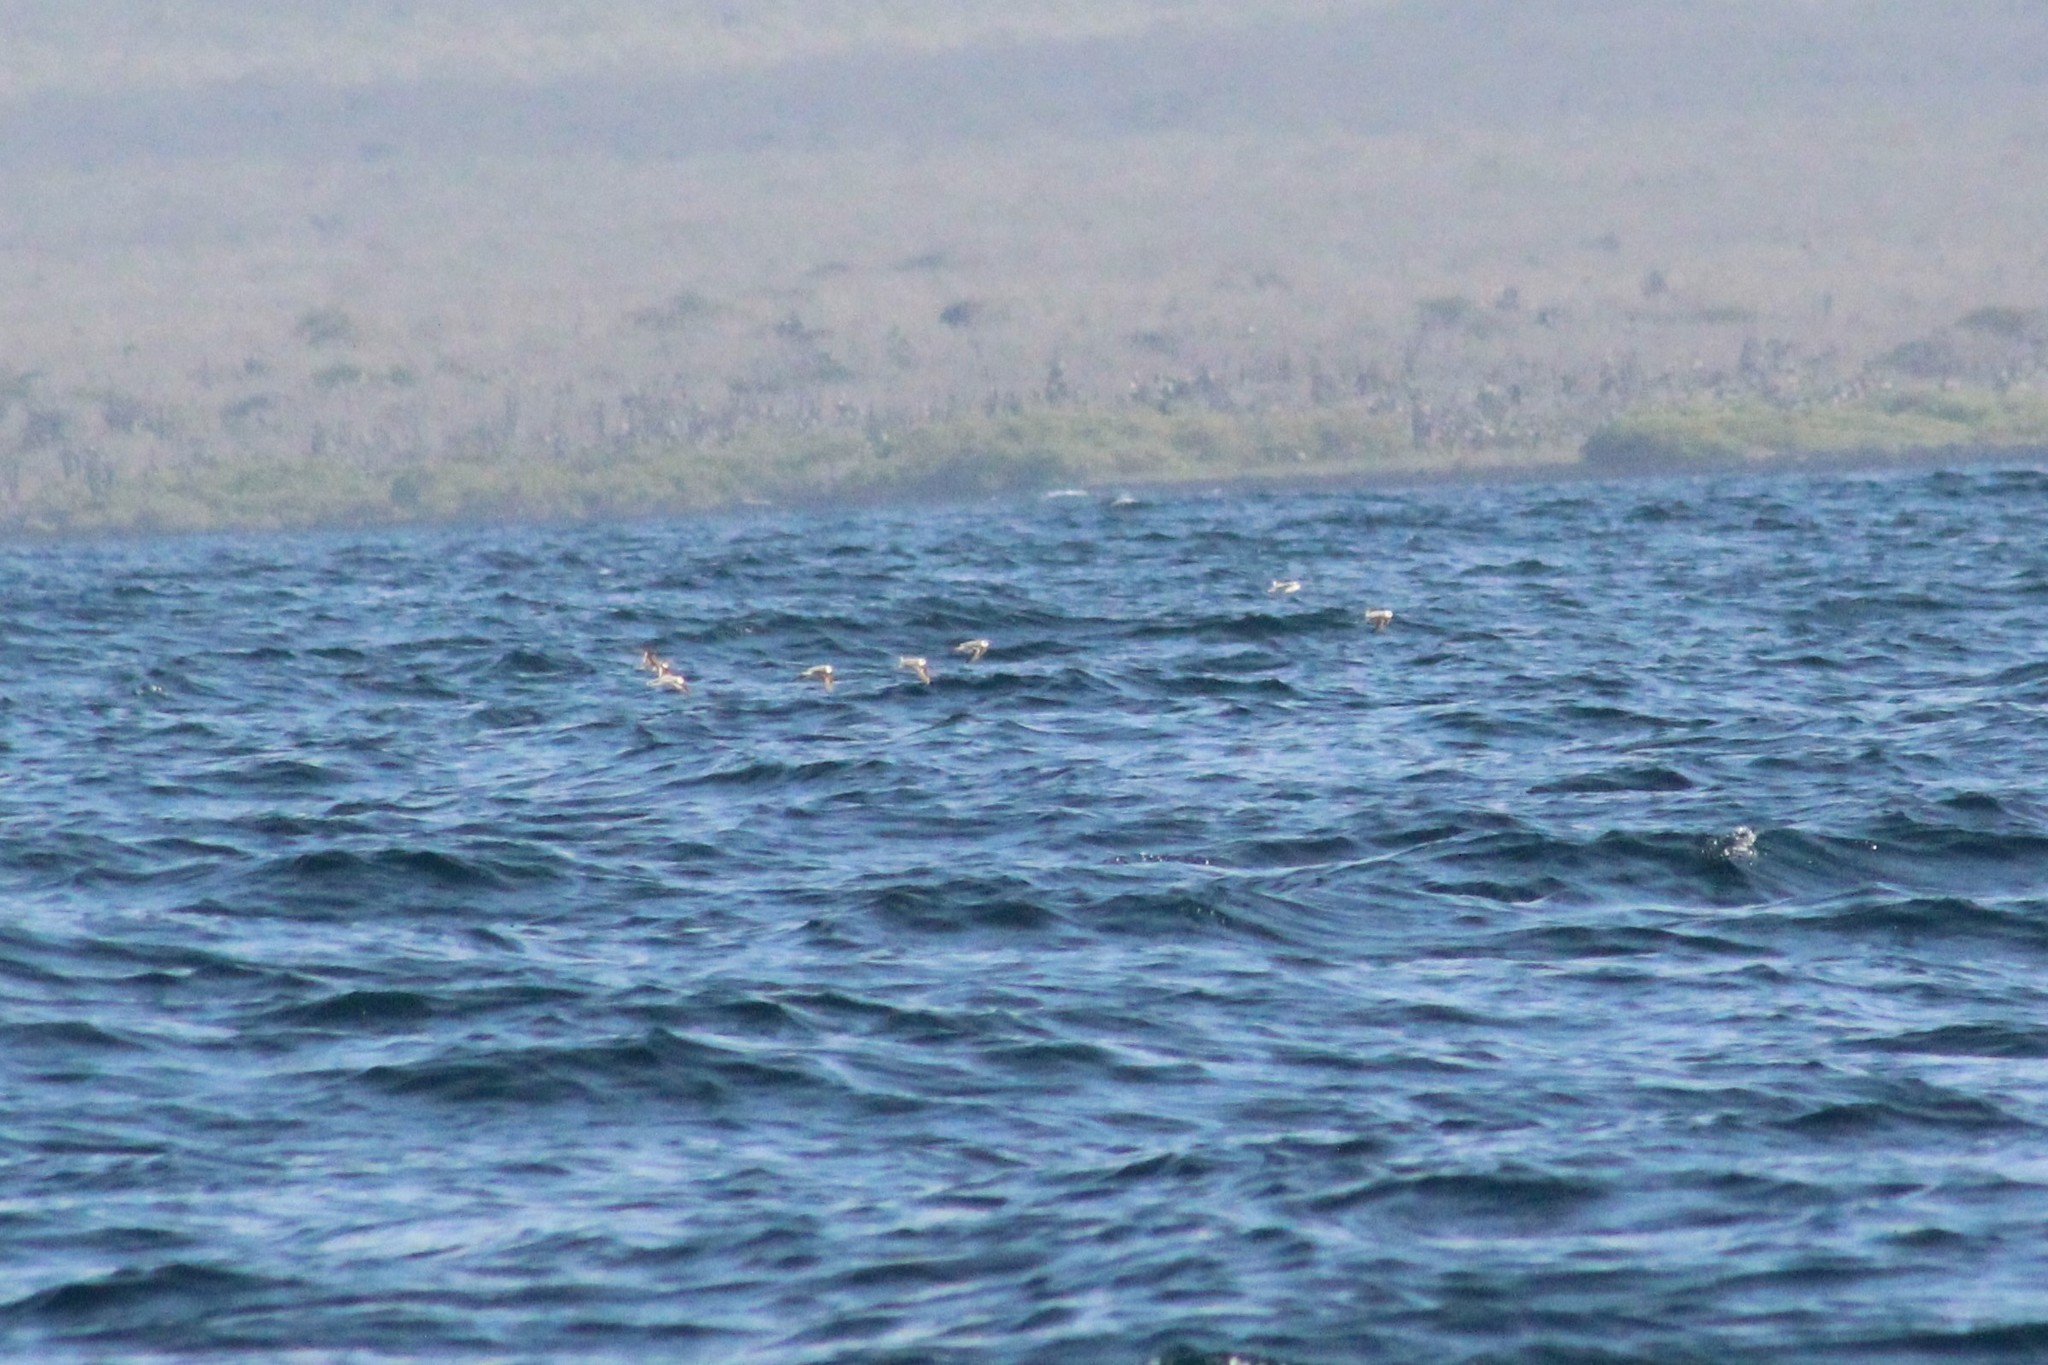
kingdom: Animalia
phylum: Chordata
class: Aves
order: Charadriiformes
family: Scolopacidae
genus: Phalaropus
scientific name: Phalaropus lobatus
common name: Red-necked phalarope
